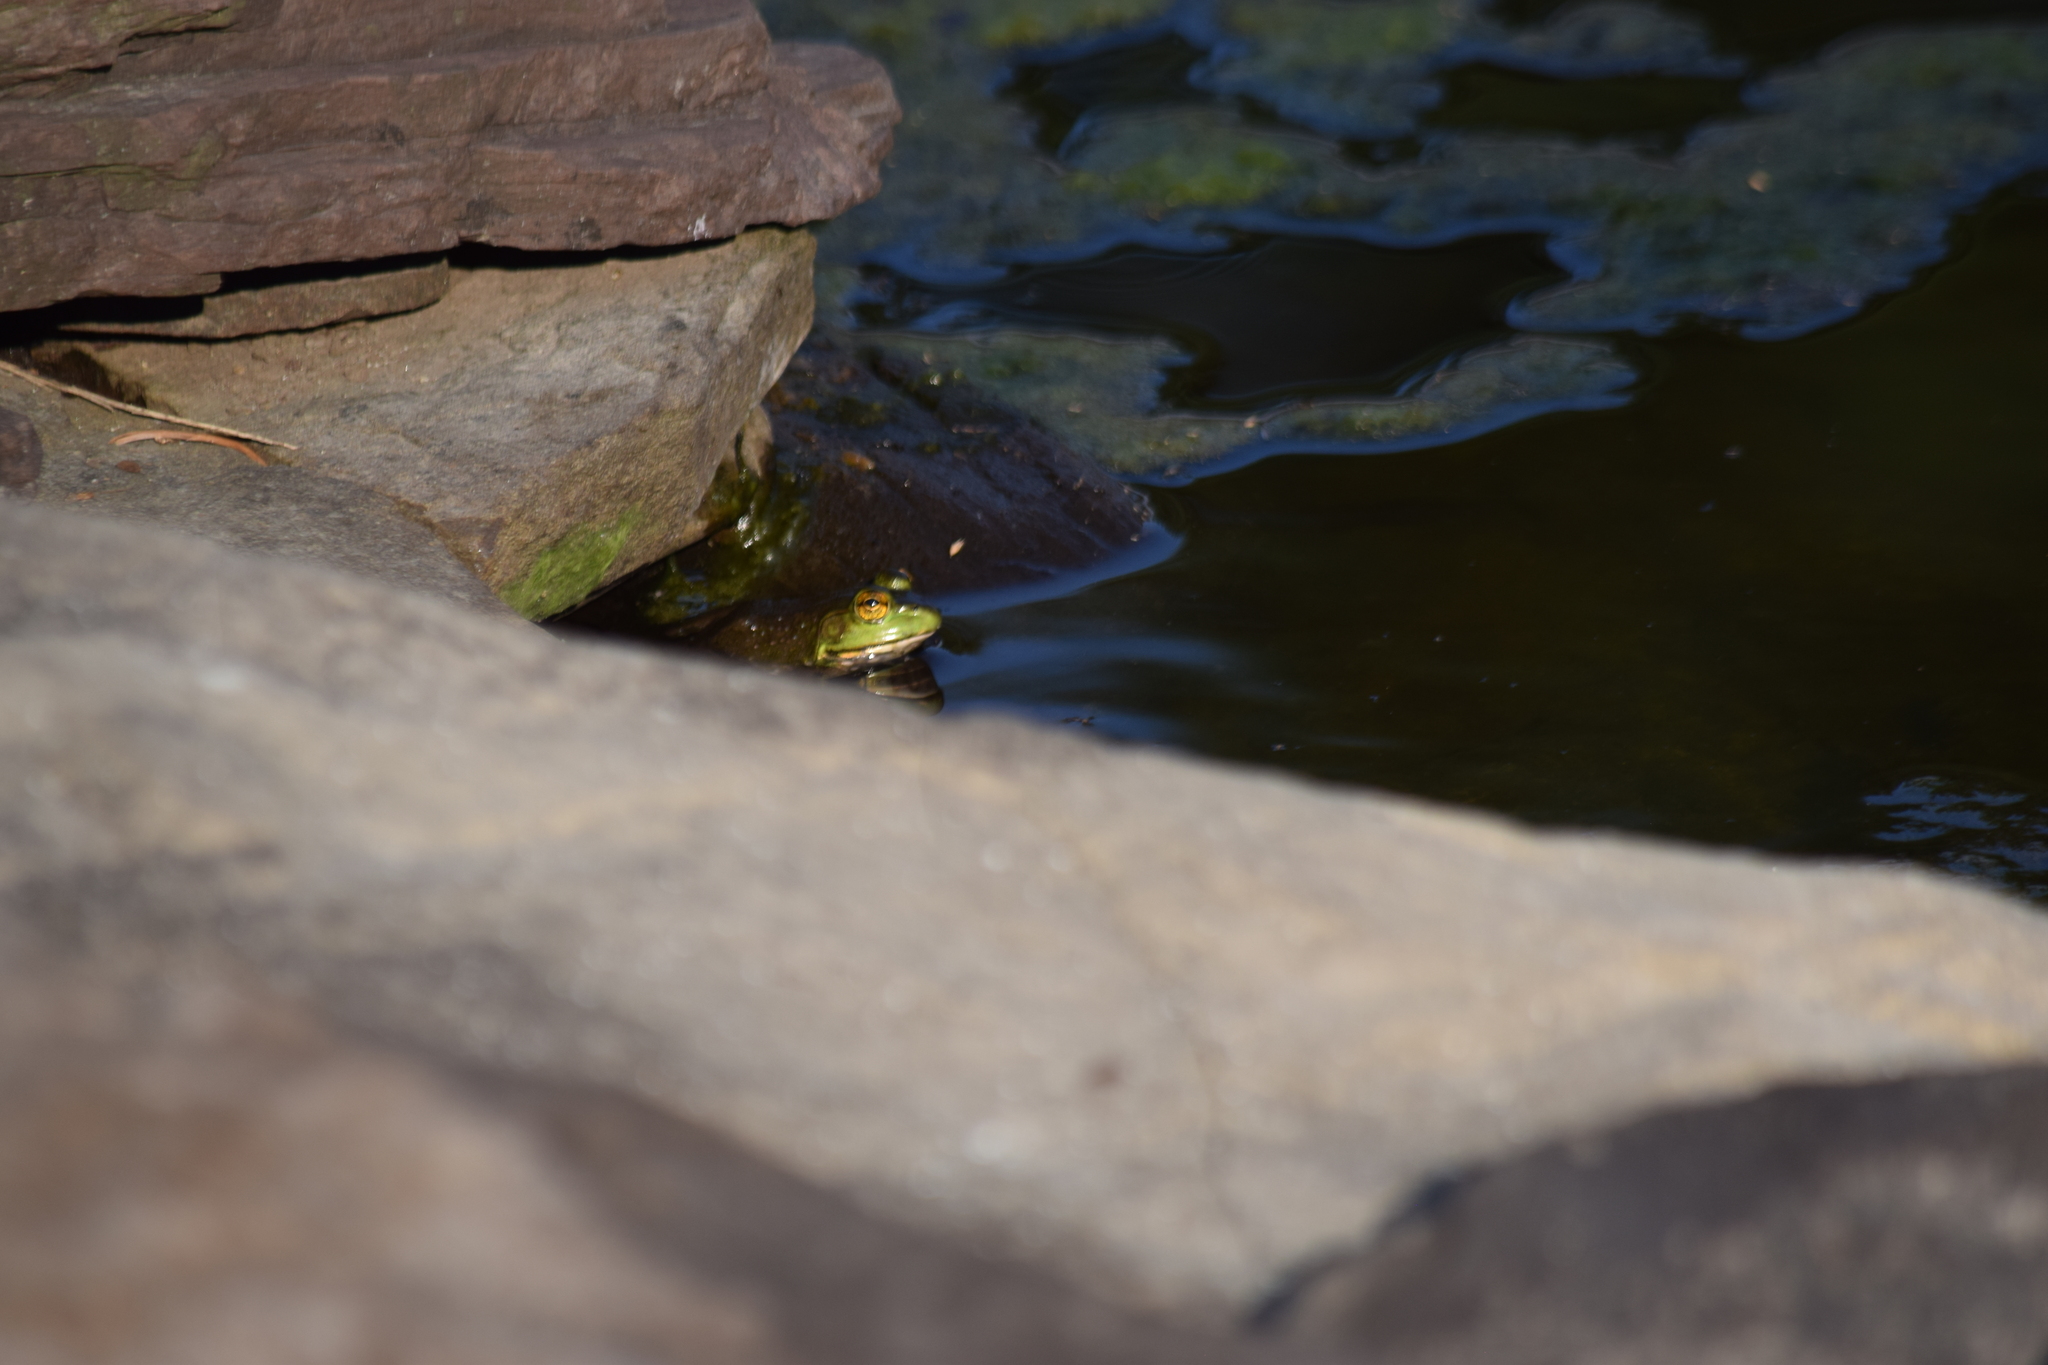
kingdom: Animalia
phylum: Chordata
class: Amphibia
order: Anura
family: Ranidae
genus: Lithobates
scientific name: Lithobates catesbeianus
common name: American bullfrog
